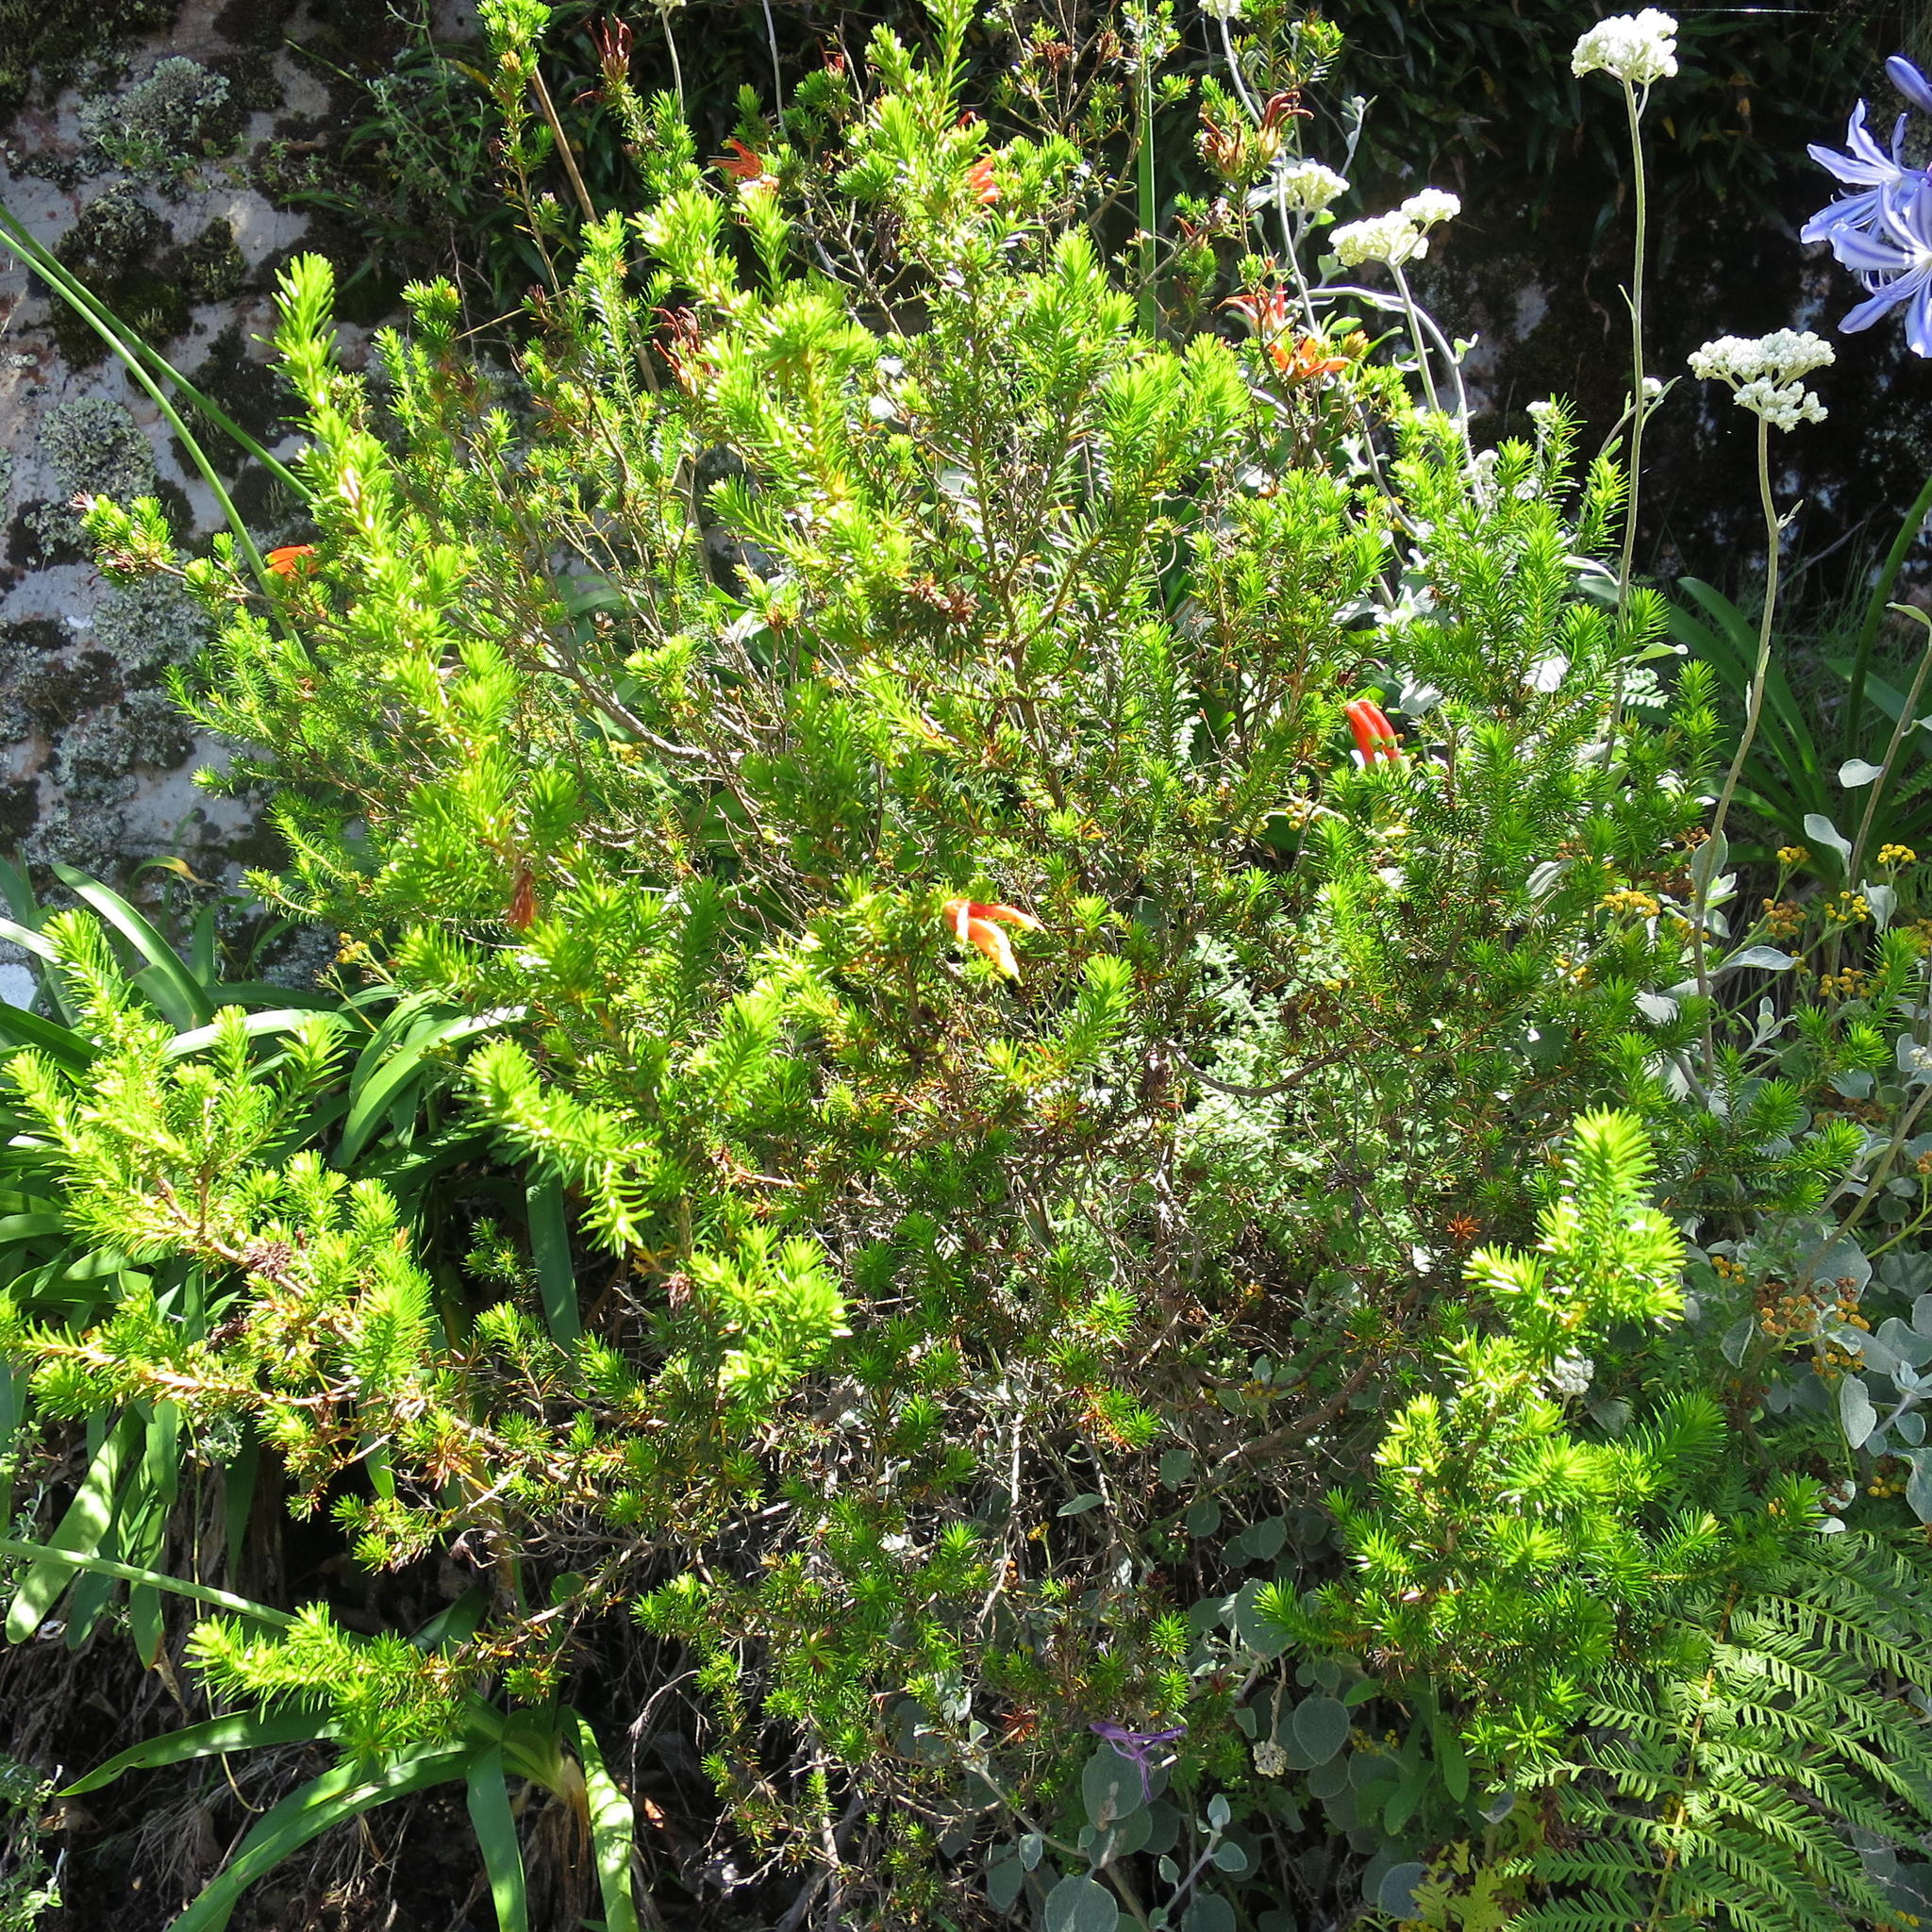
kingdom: Plantae
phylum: Tracheophyta
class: Magnoliopsida
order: Ericales
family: Ericaceae
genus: Erica
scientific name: Erica unicolor
